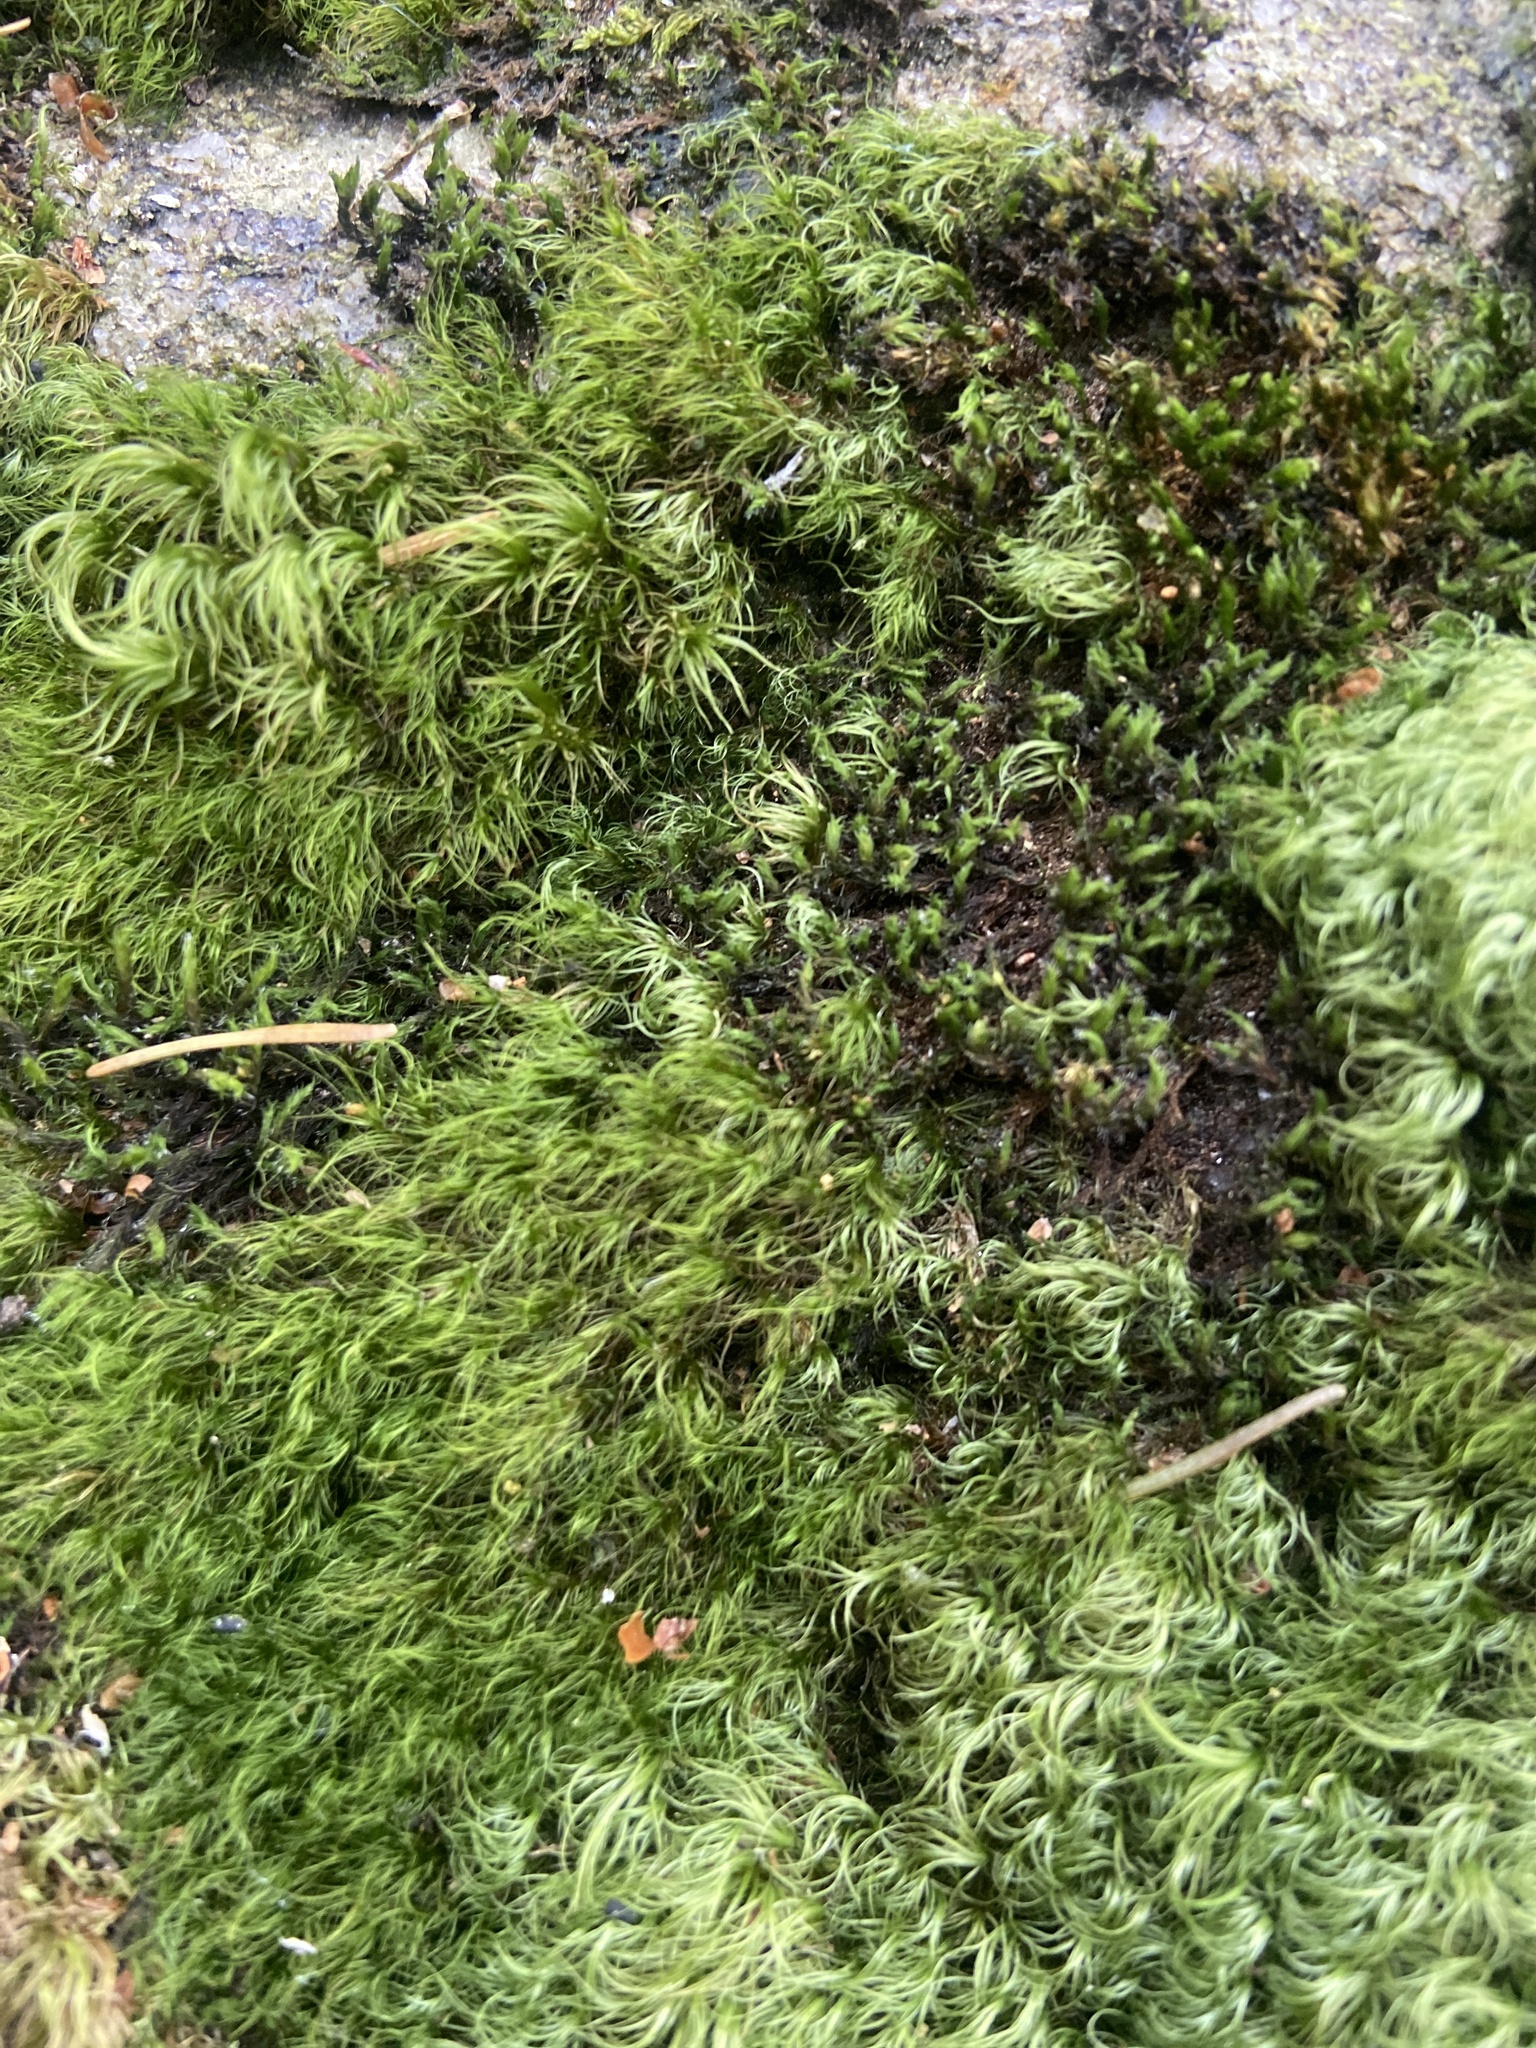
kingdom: Plantae
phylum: Bryophyta
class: Bryopsida
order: Dicranales
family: Dicranaceae
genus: Paraleucobryum
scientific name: Paraleucobryum longifolium
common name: Long-leaved fork moss
